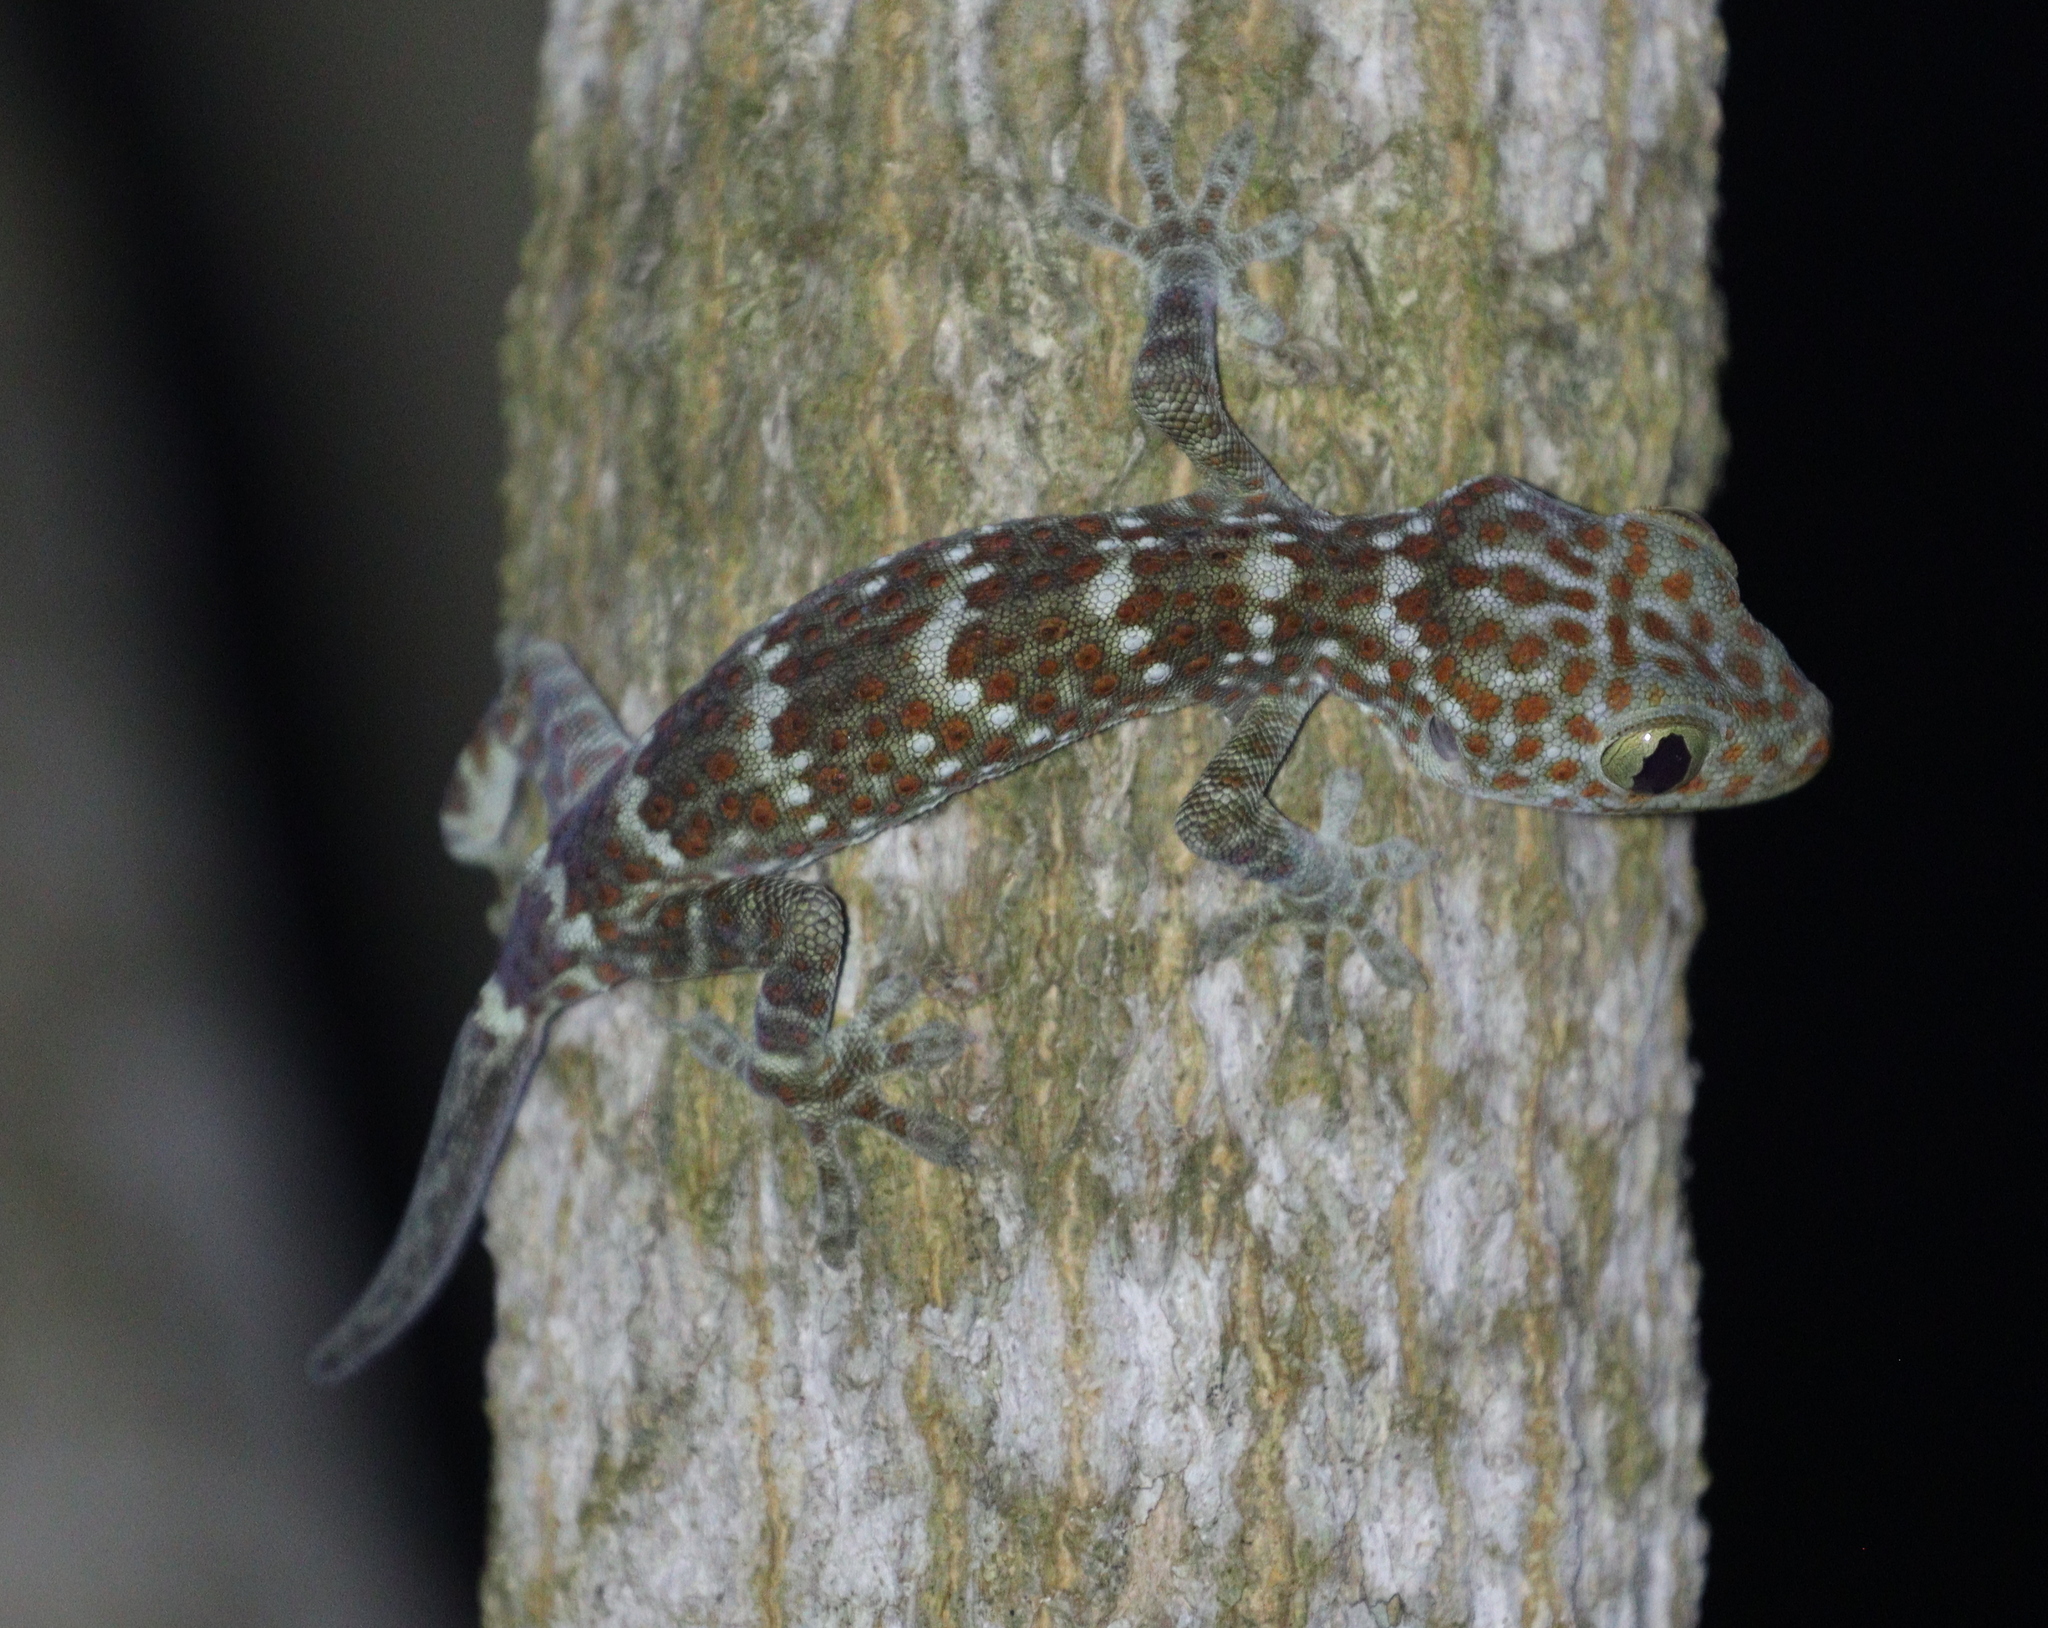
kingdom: Animalia
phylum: Chordata
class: Squamata
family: Gekkonidae
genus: Gekko
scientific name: Gekko gecko
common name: Tokay gecko
